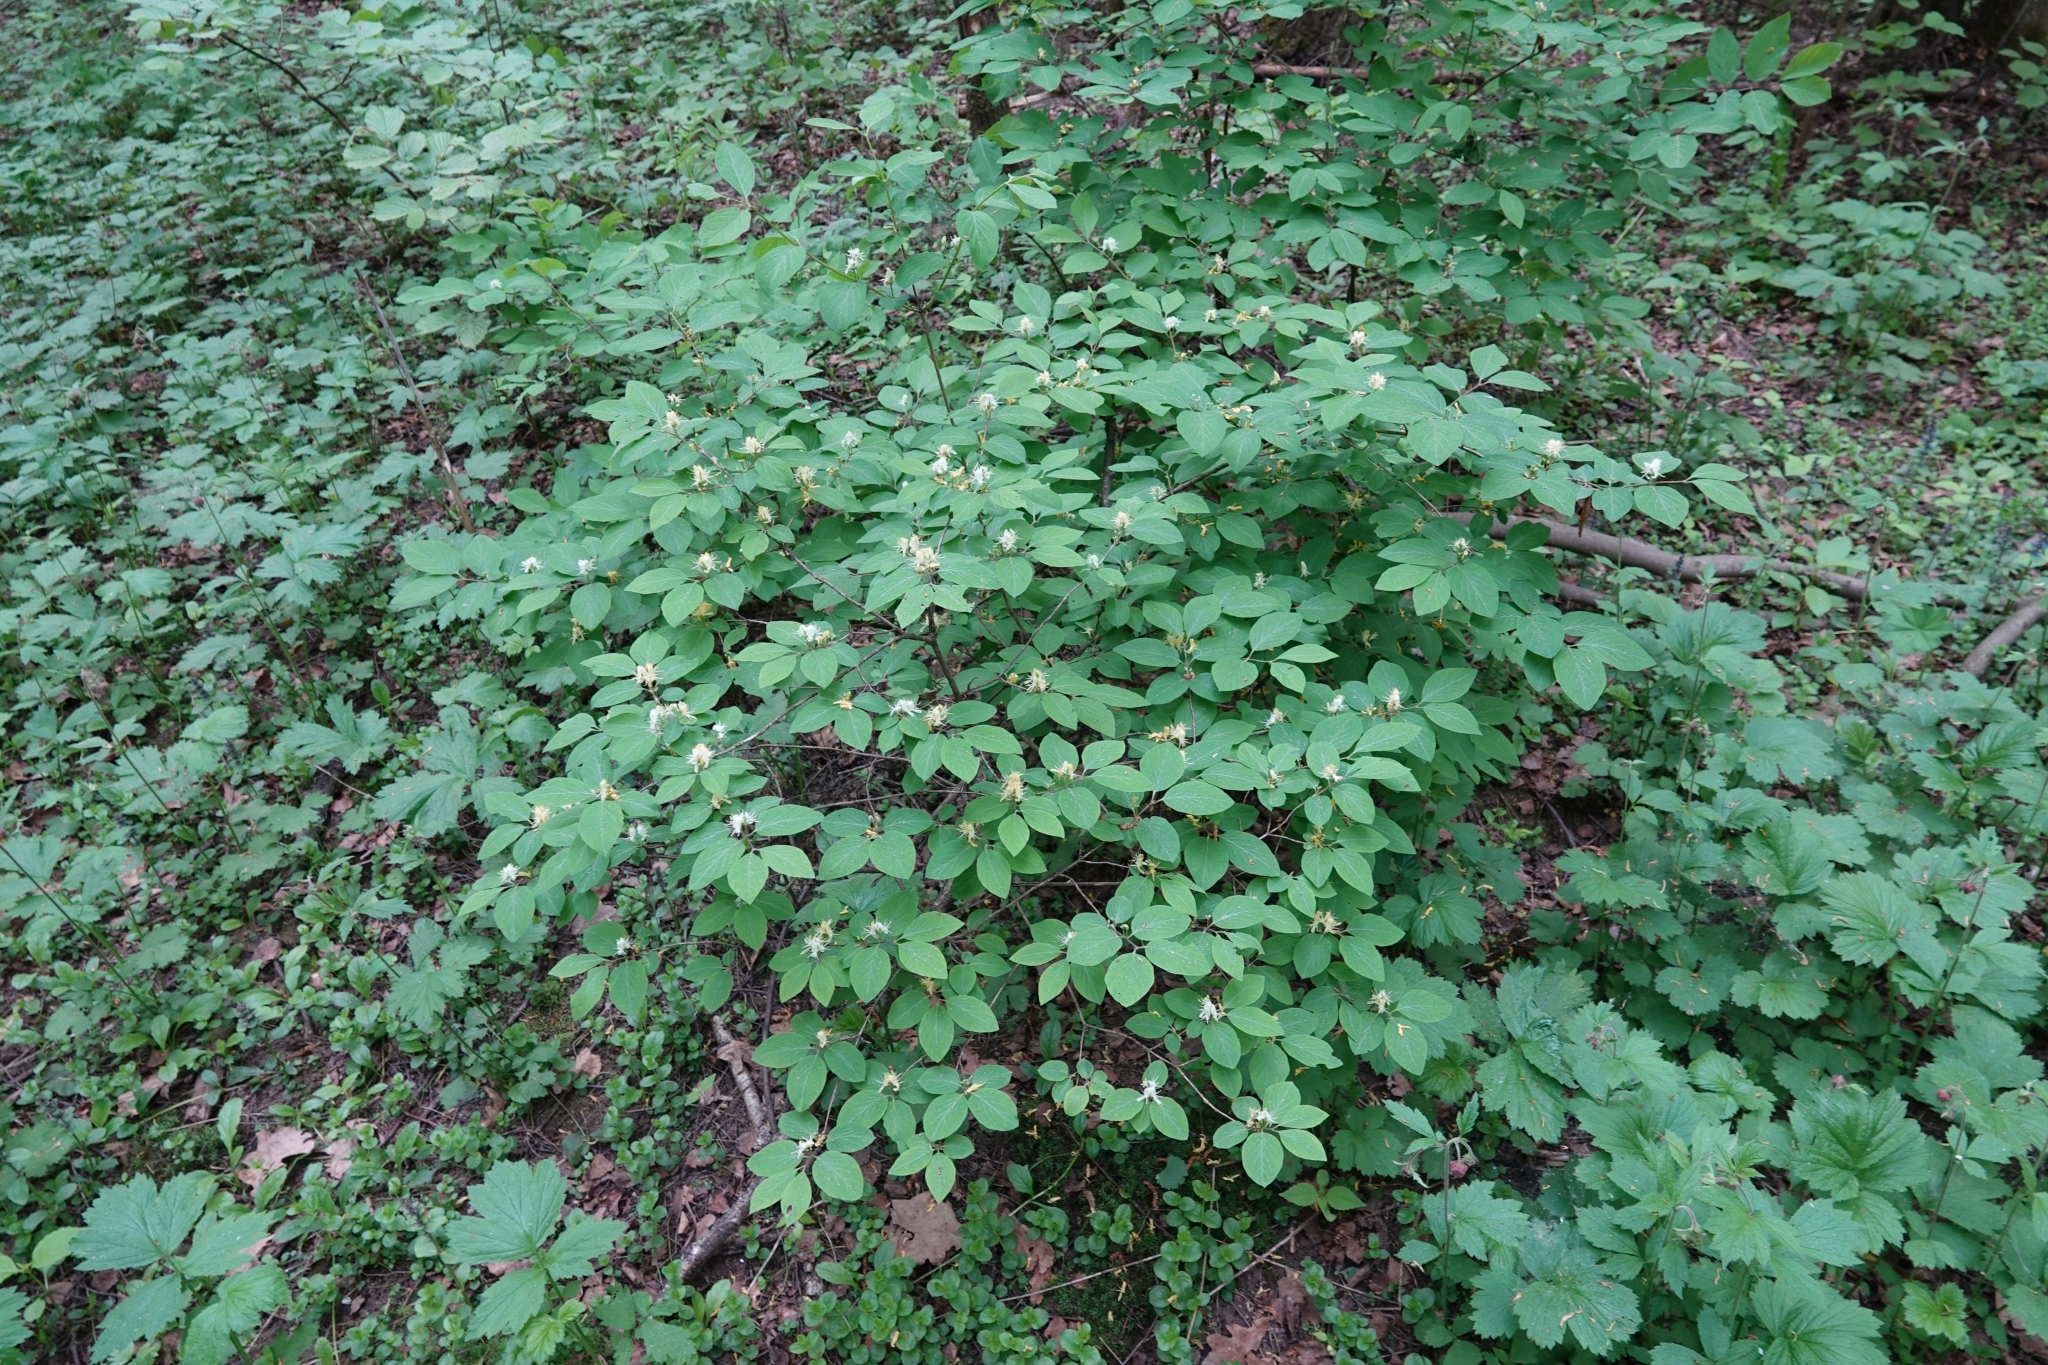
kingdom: Plantae
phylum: Tracheophyta
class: Magnoliopsida
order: Dipsacales
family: Caprifoliaceae
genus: Lonicera
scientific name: Lonicera xylosteum
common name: Fly honeysuckle
